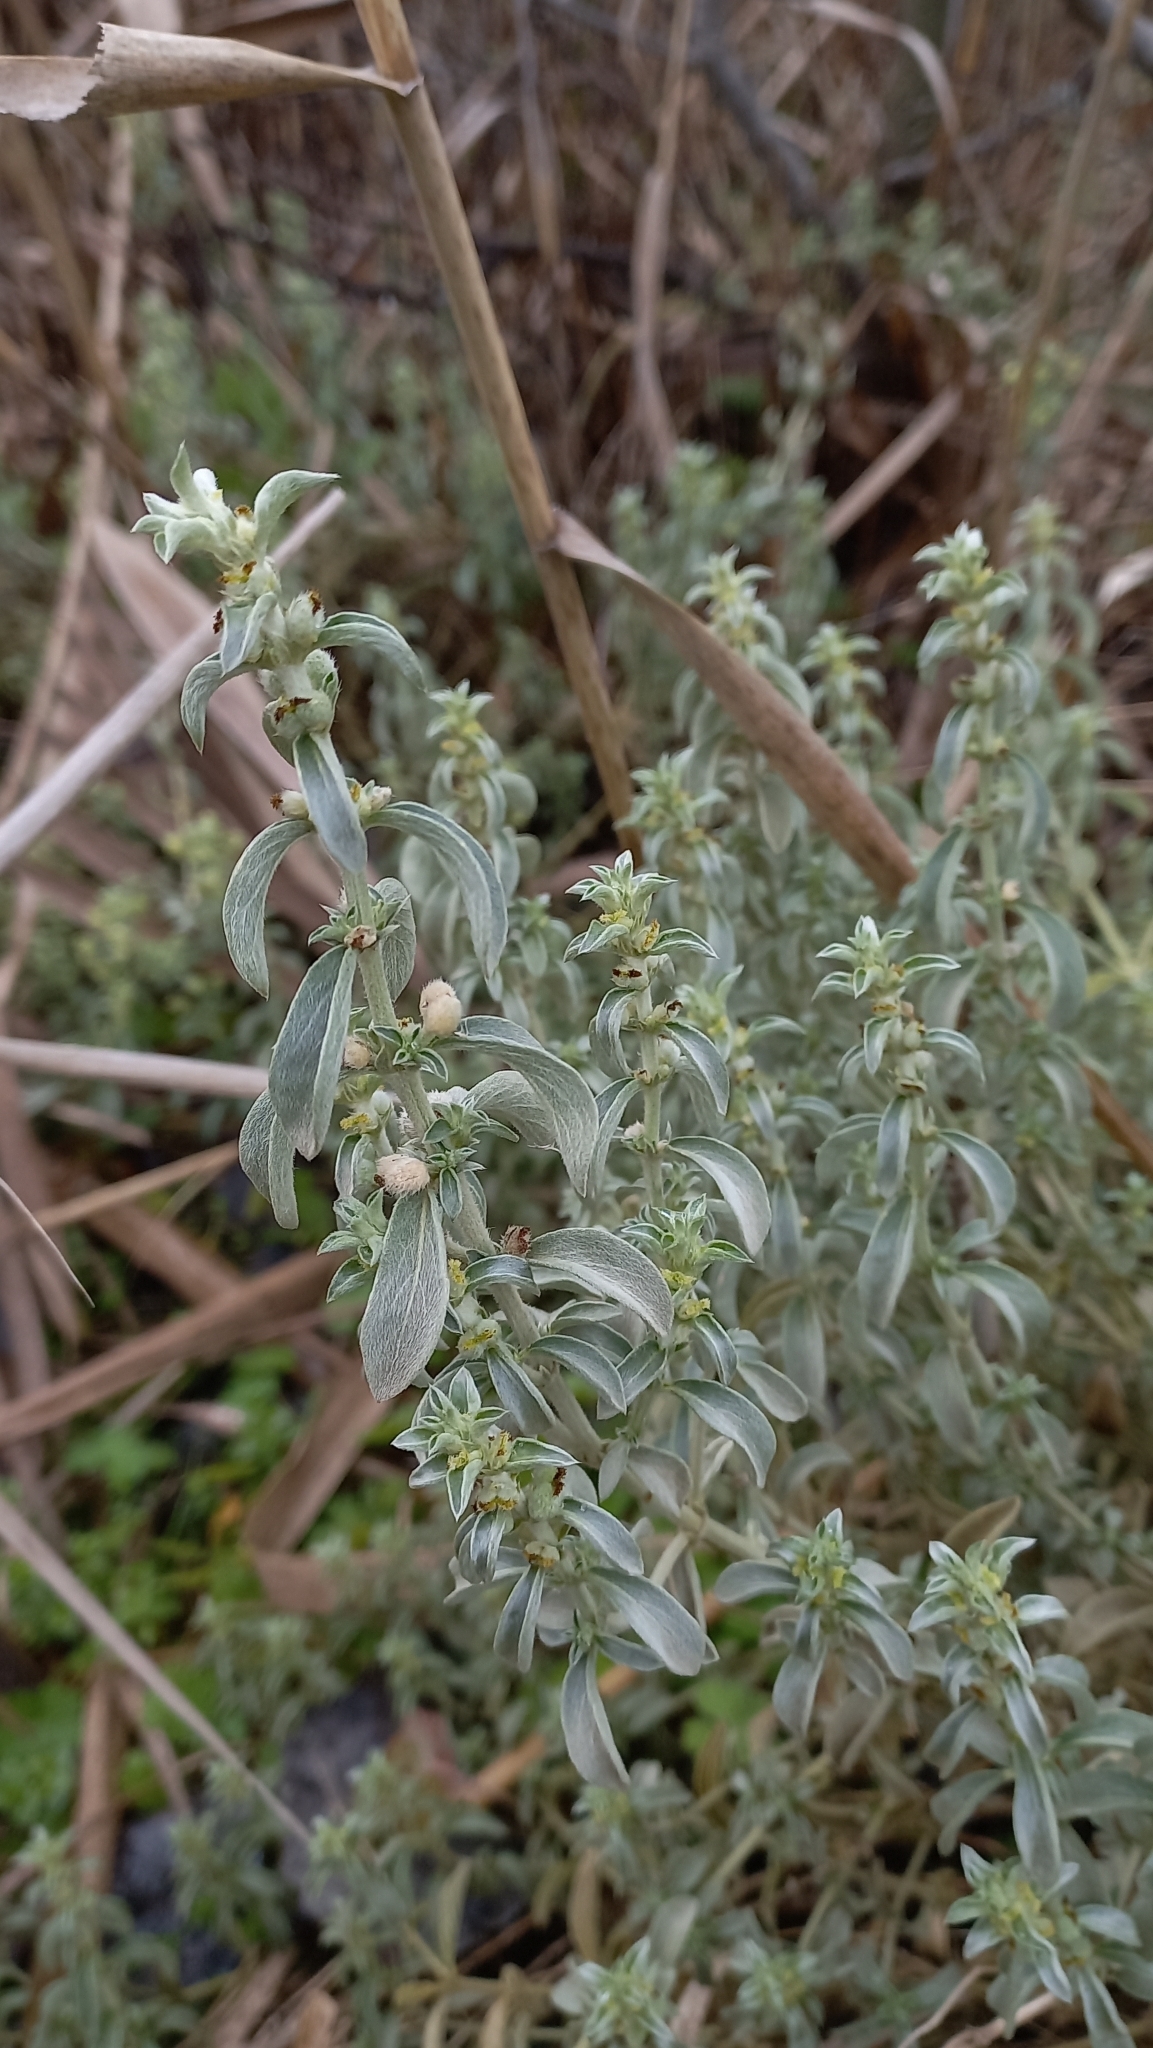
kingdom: Plantae
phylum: Tracheophyta
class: Magnoliopsida
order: Malpighiales
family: Euphorbiaceae
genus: Mercurialis
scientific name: Mercurialis tomentosa
